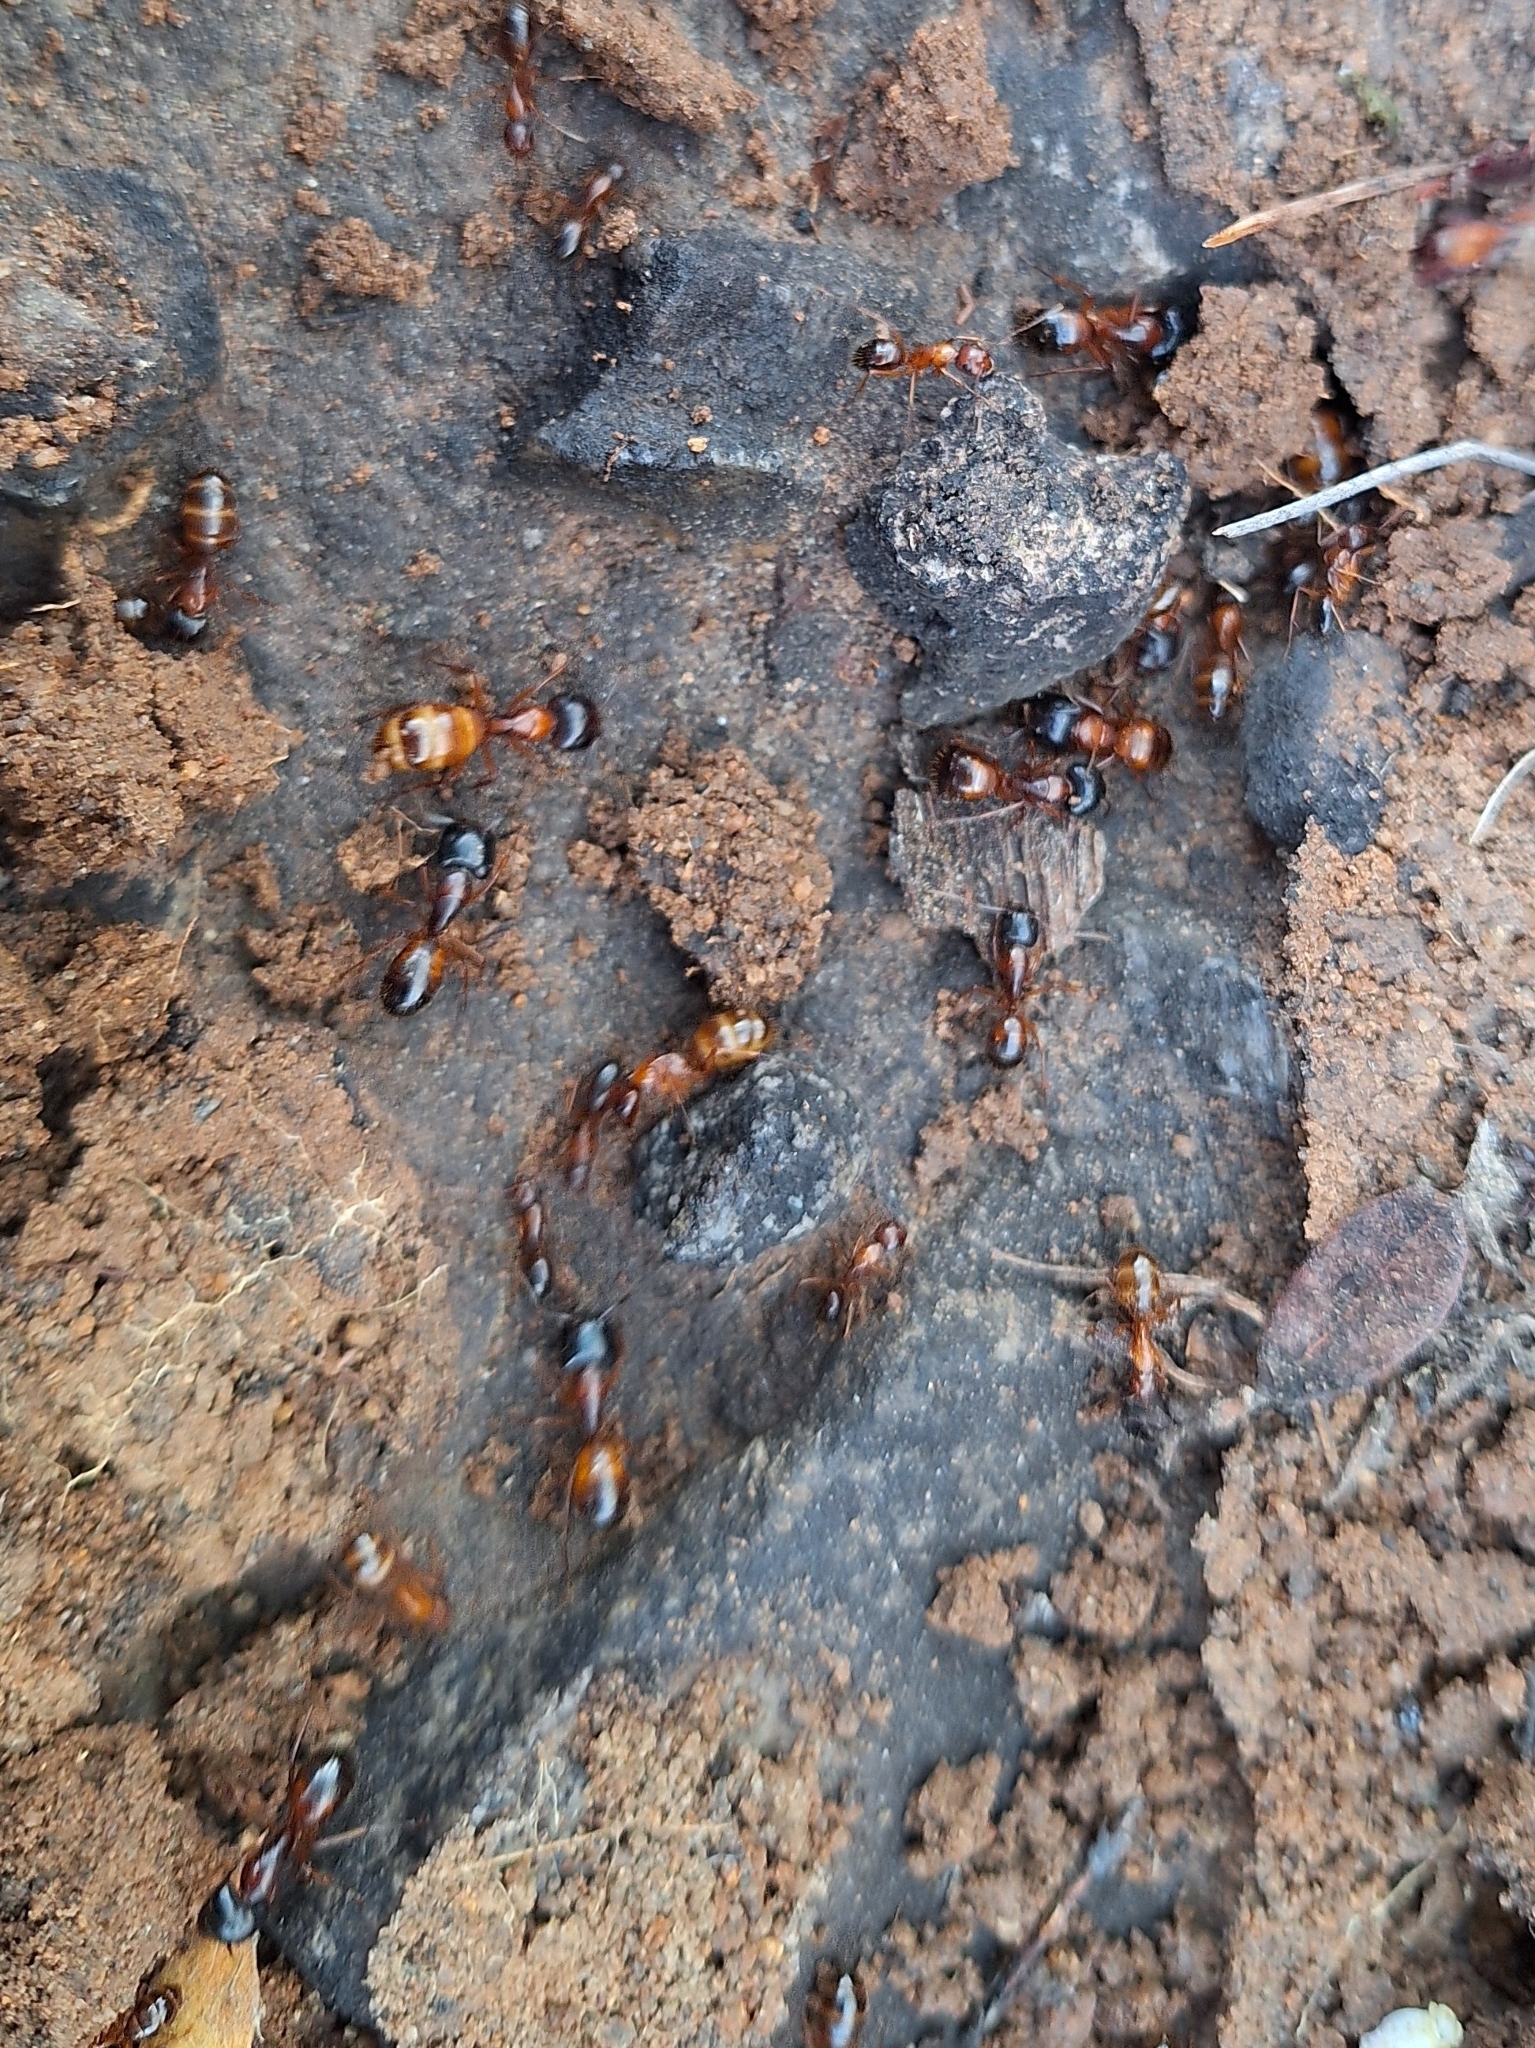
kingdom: Animalia
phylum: Arthropoda
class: Insecta
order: Hymenoptera
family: Formicidae
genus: Camponotus
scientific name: Camponotus sansabeanus
